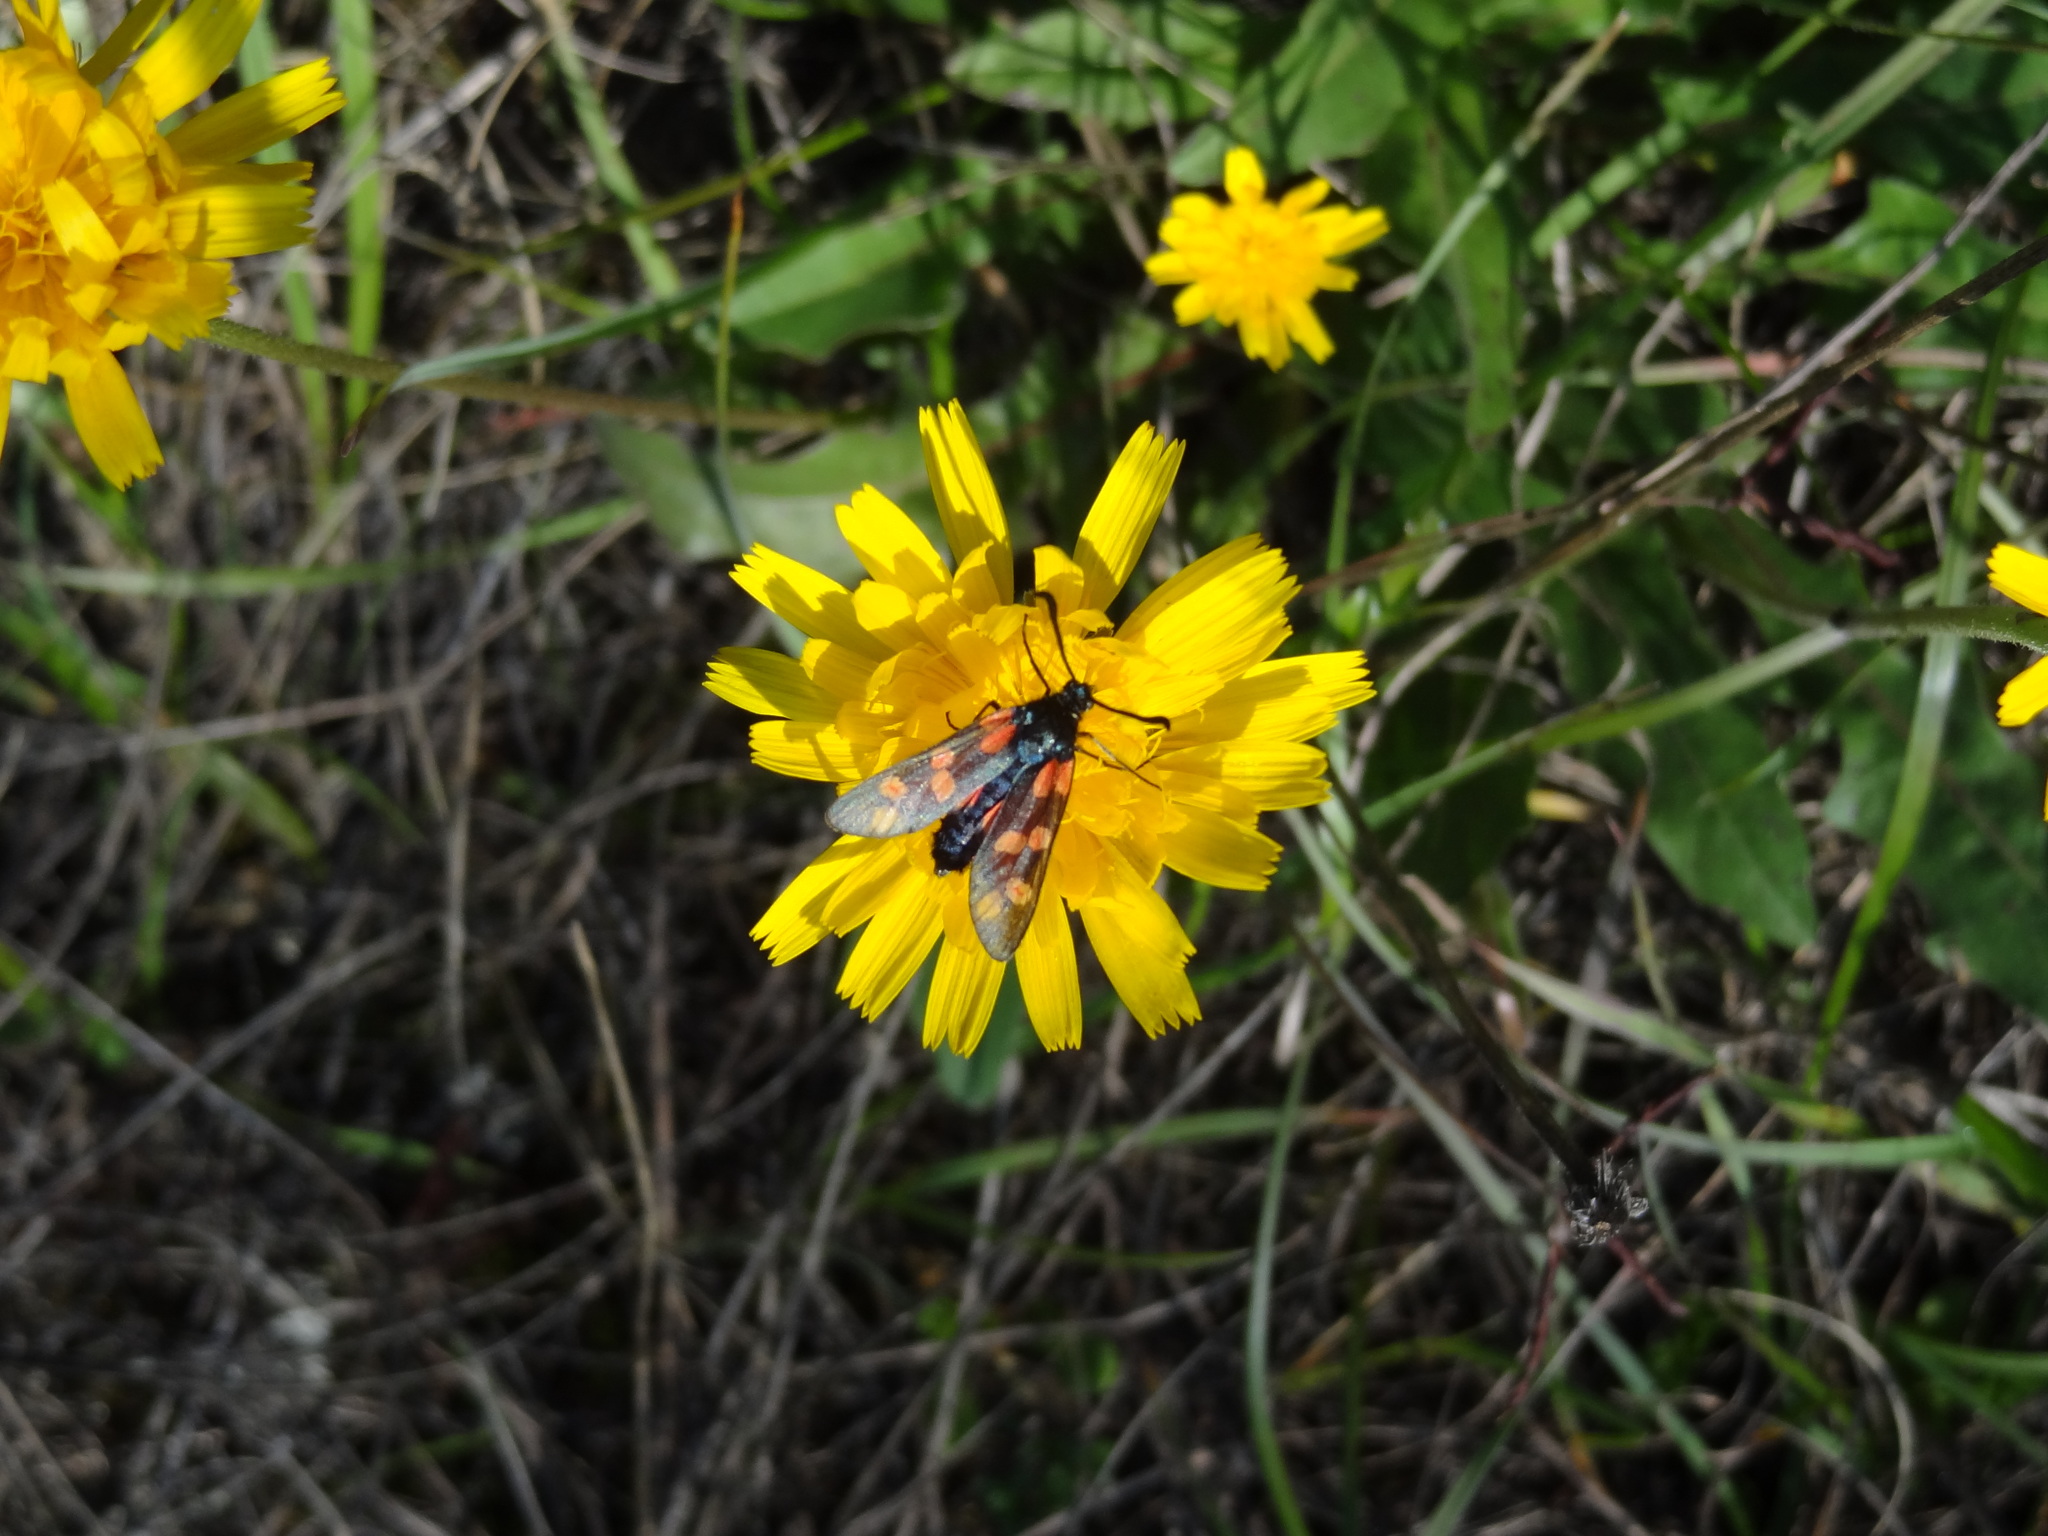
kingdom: Animalia
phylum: Arthropoda
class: Insecta
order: Lepidoptera
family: Zygaenidae
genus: Zygaena
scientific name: Zygaena filipendulae
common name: Six-spot burnet
